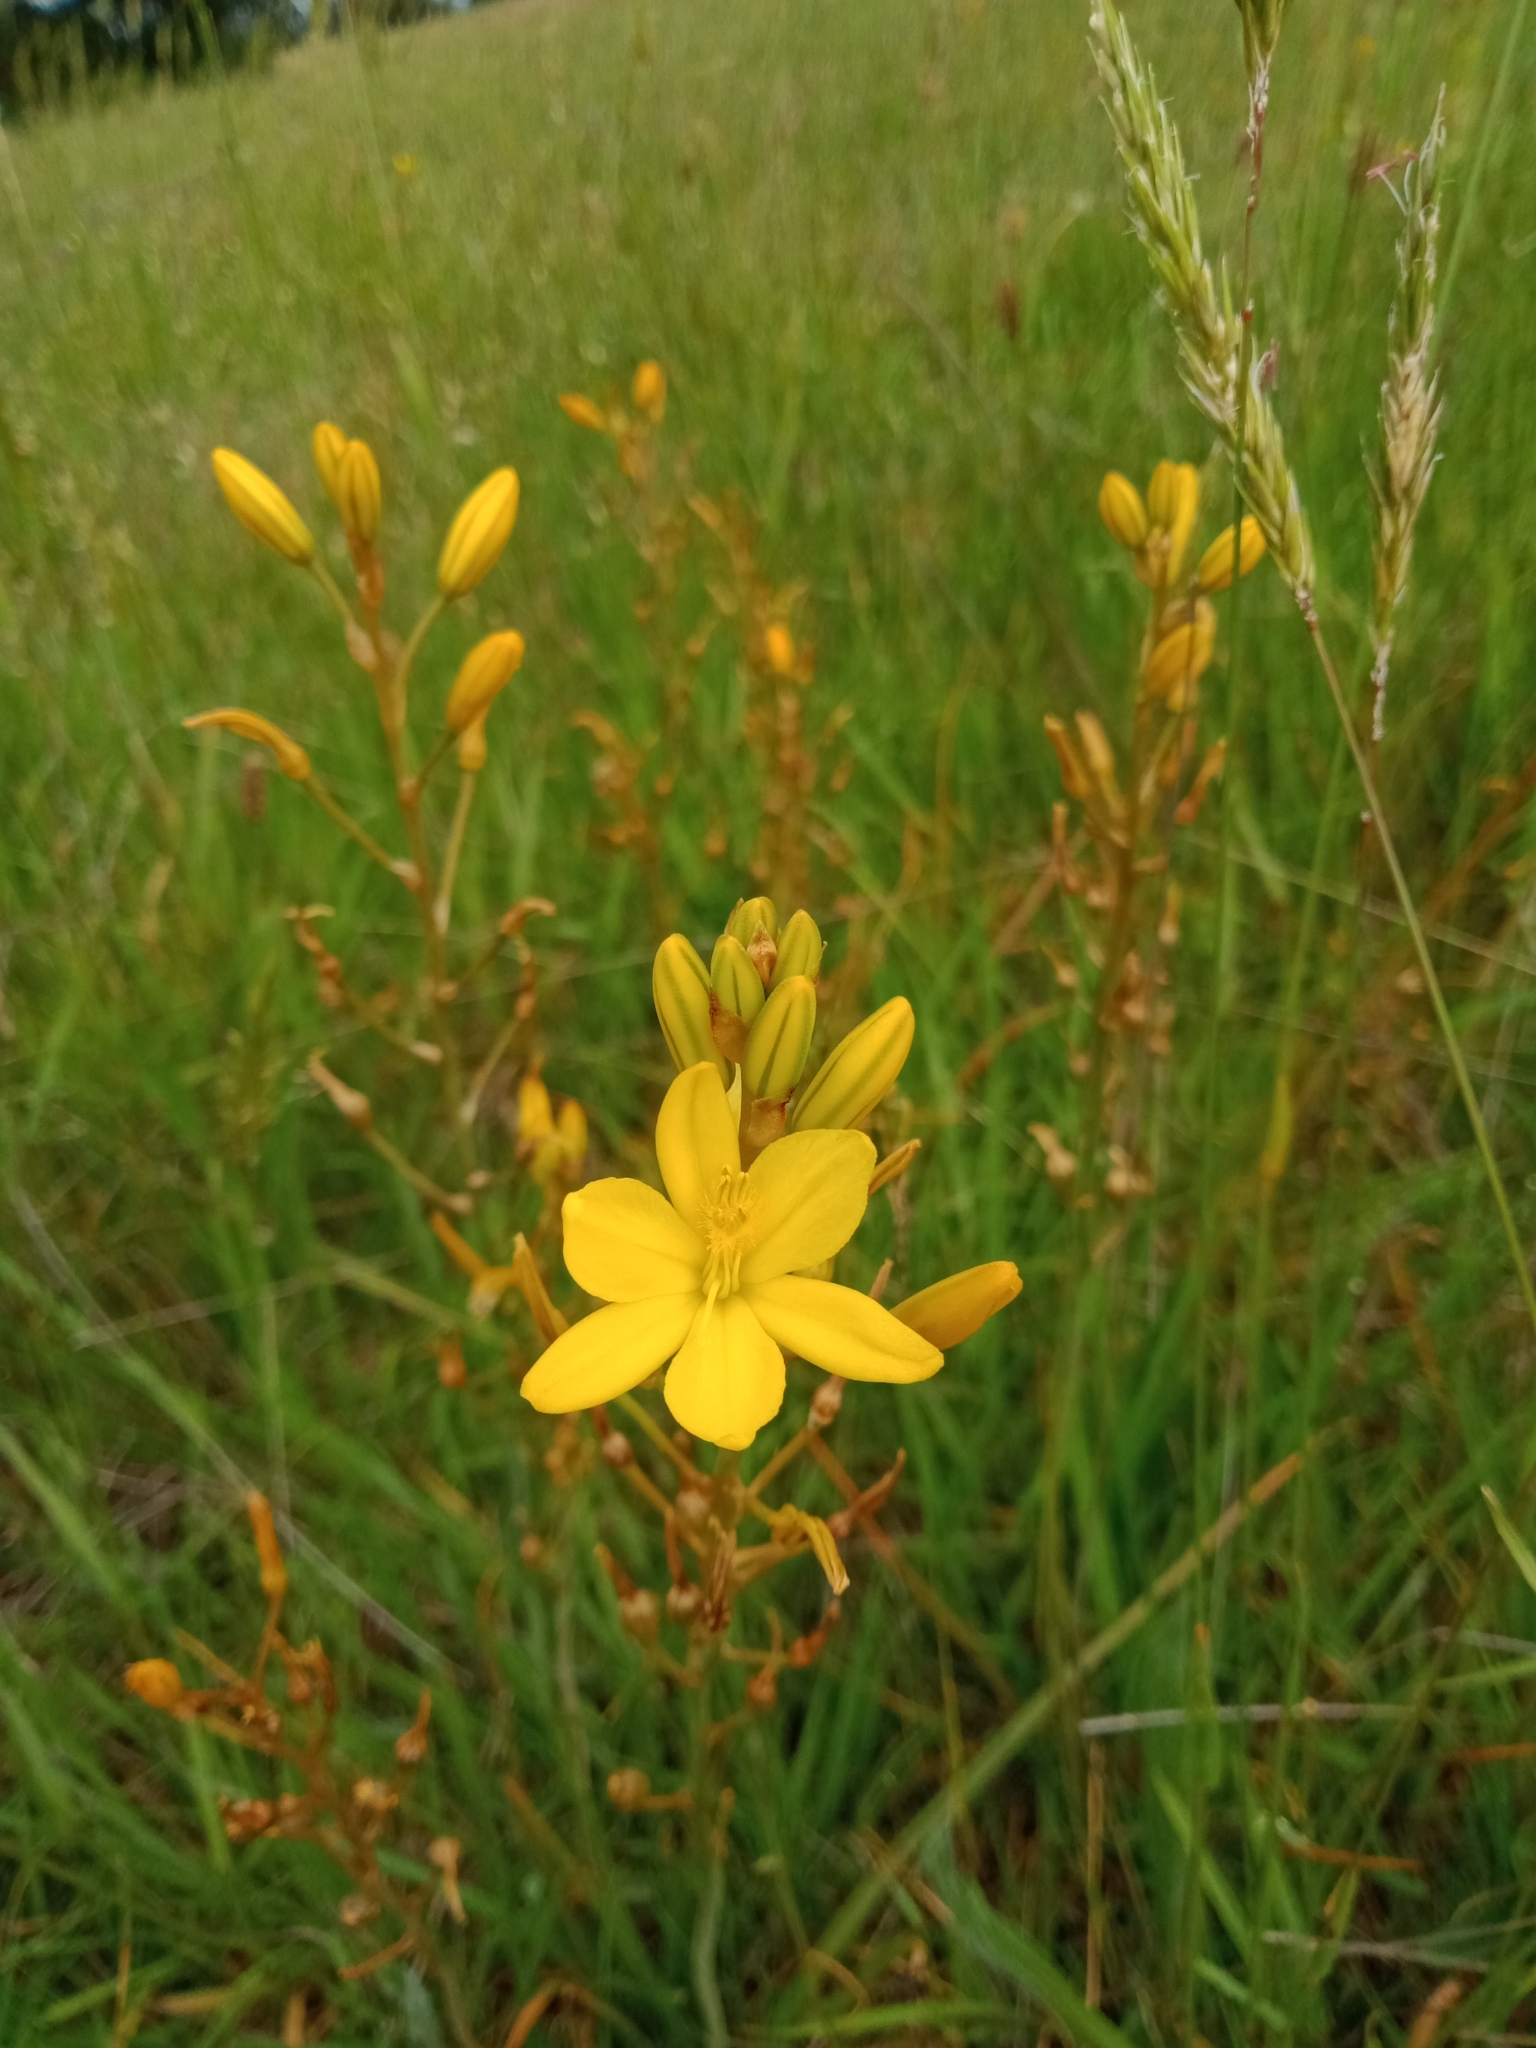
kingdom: Plantae
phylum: Tracheophyta
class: Liliopsida
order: Asparagales
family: Asphodelaceae
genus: Bulbine
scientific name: Bulbine bulbosa
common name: Golden-lily
